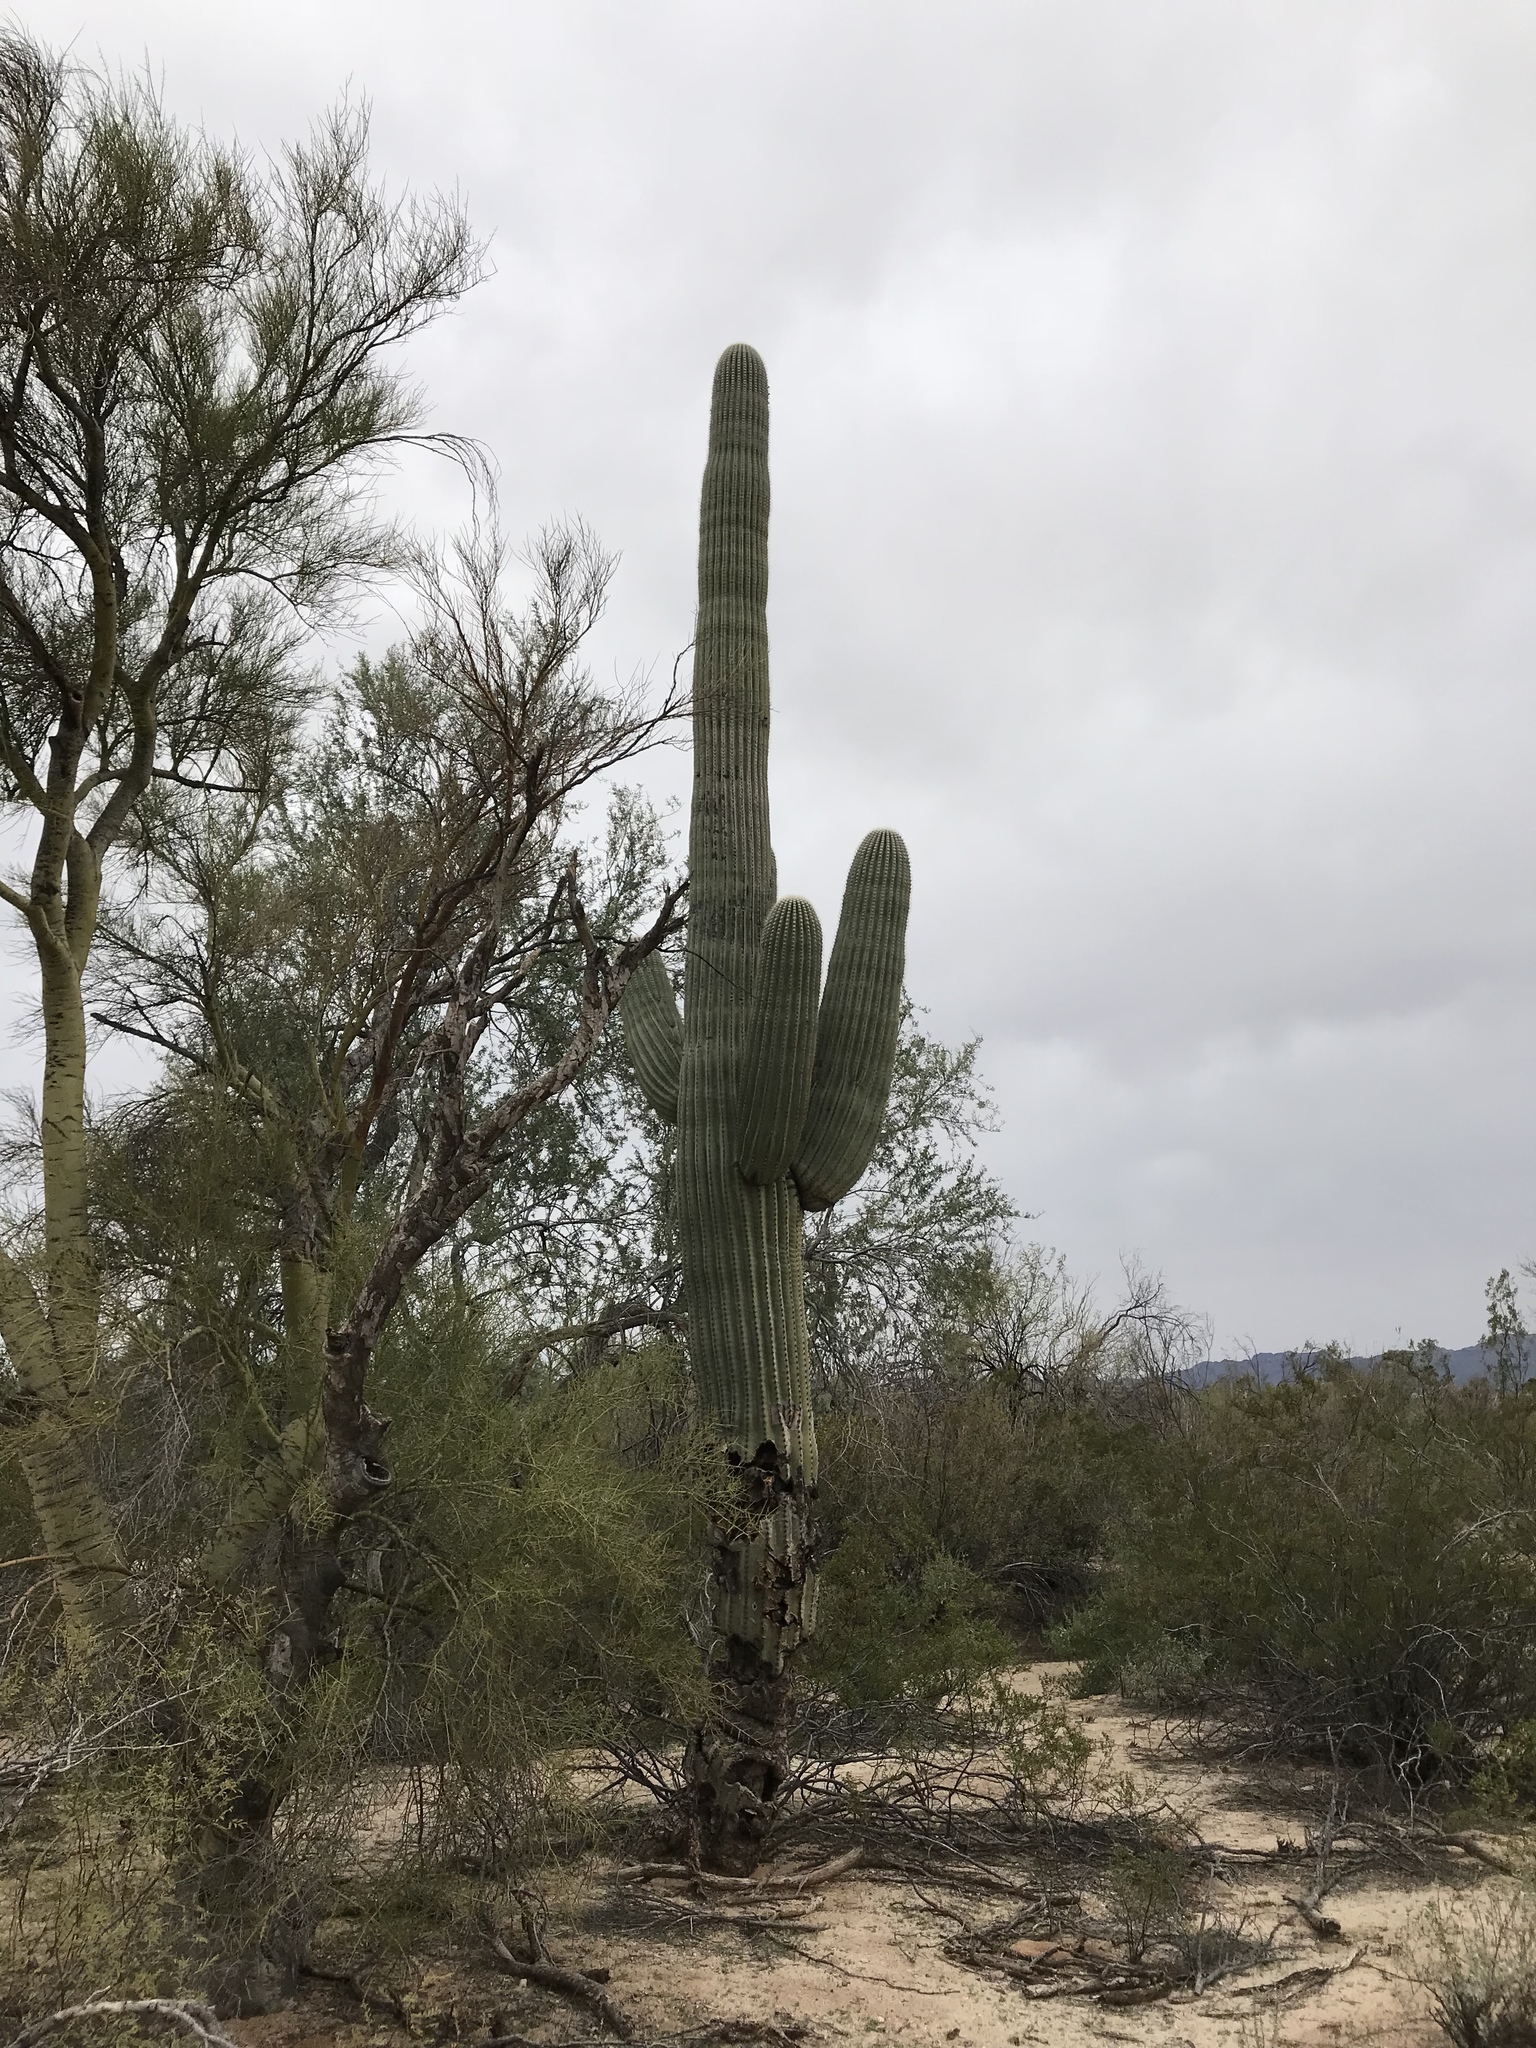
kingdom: Plantae
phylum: Tracheophyta
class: Magnoliopsida
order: Caryophyllales
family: Cactaceae
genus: Carnegiea
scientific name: Carnegiea gigantea
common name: Saguaro
